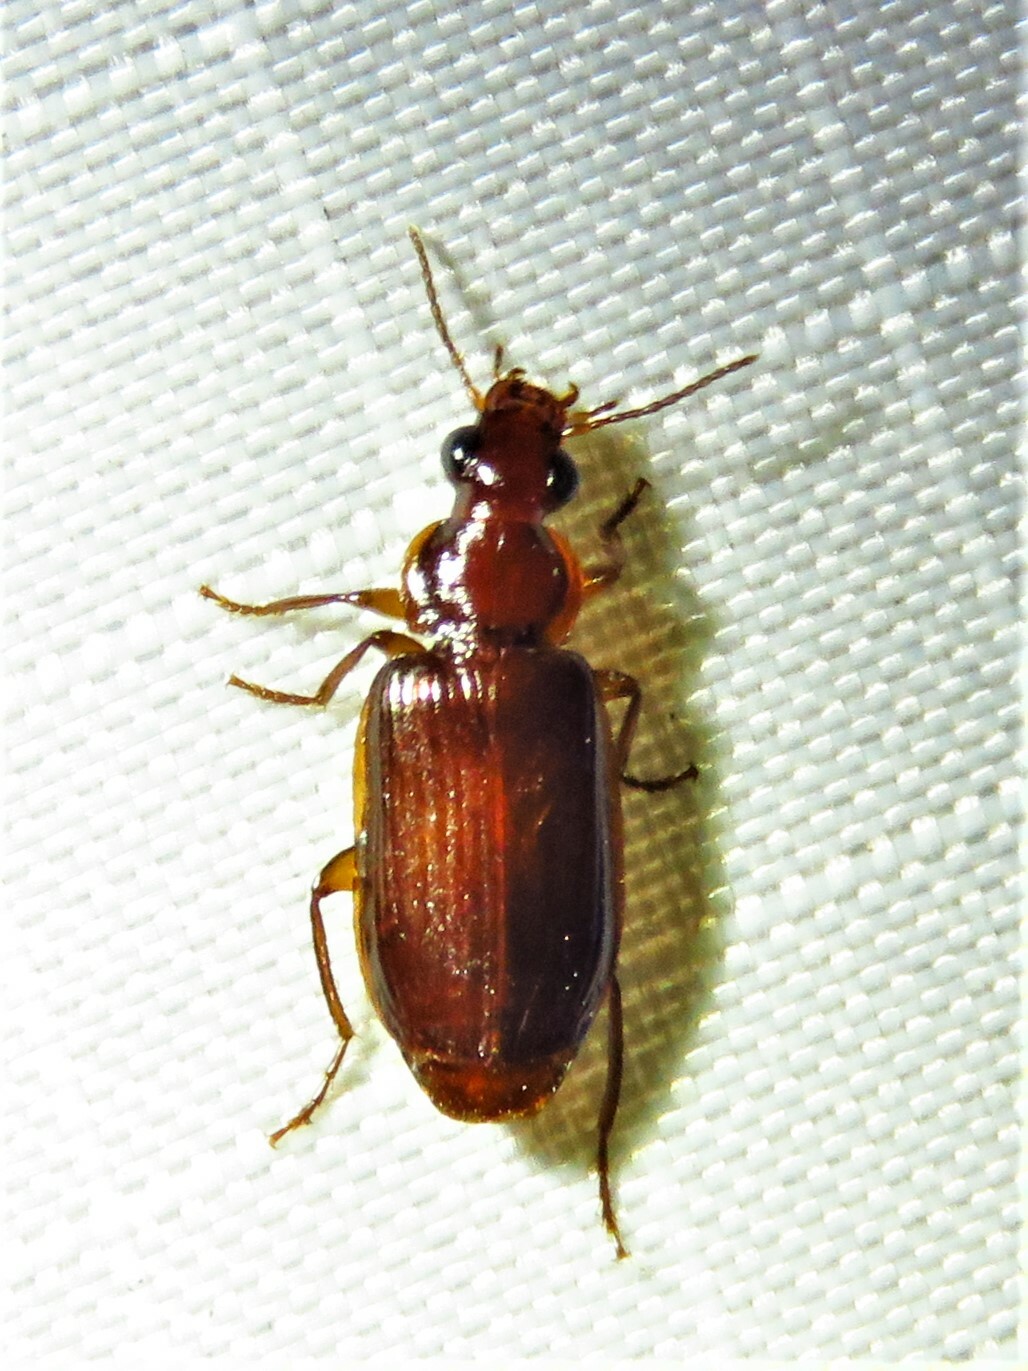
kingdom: Animalia
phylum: Arthropoda
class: Insecta
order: Coleoptera
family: Carabidae
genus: Plochionus
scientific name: Plochionus timidus
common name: Timid harp ground beetle
